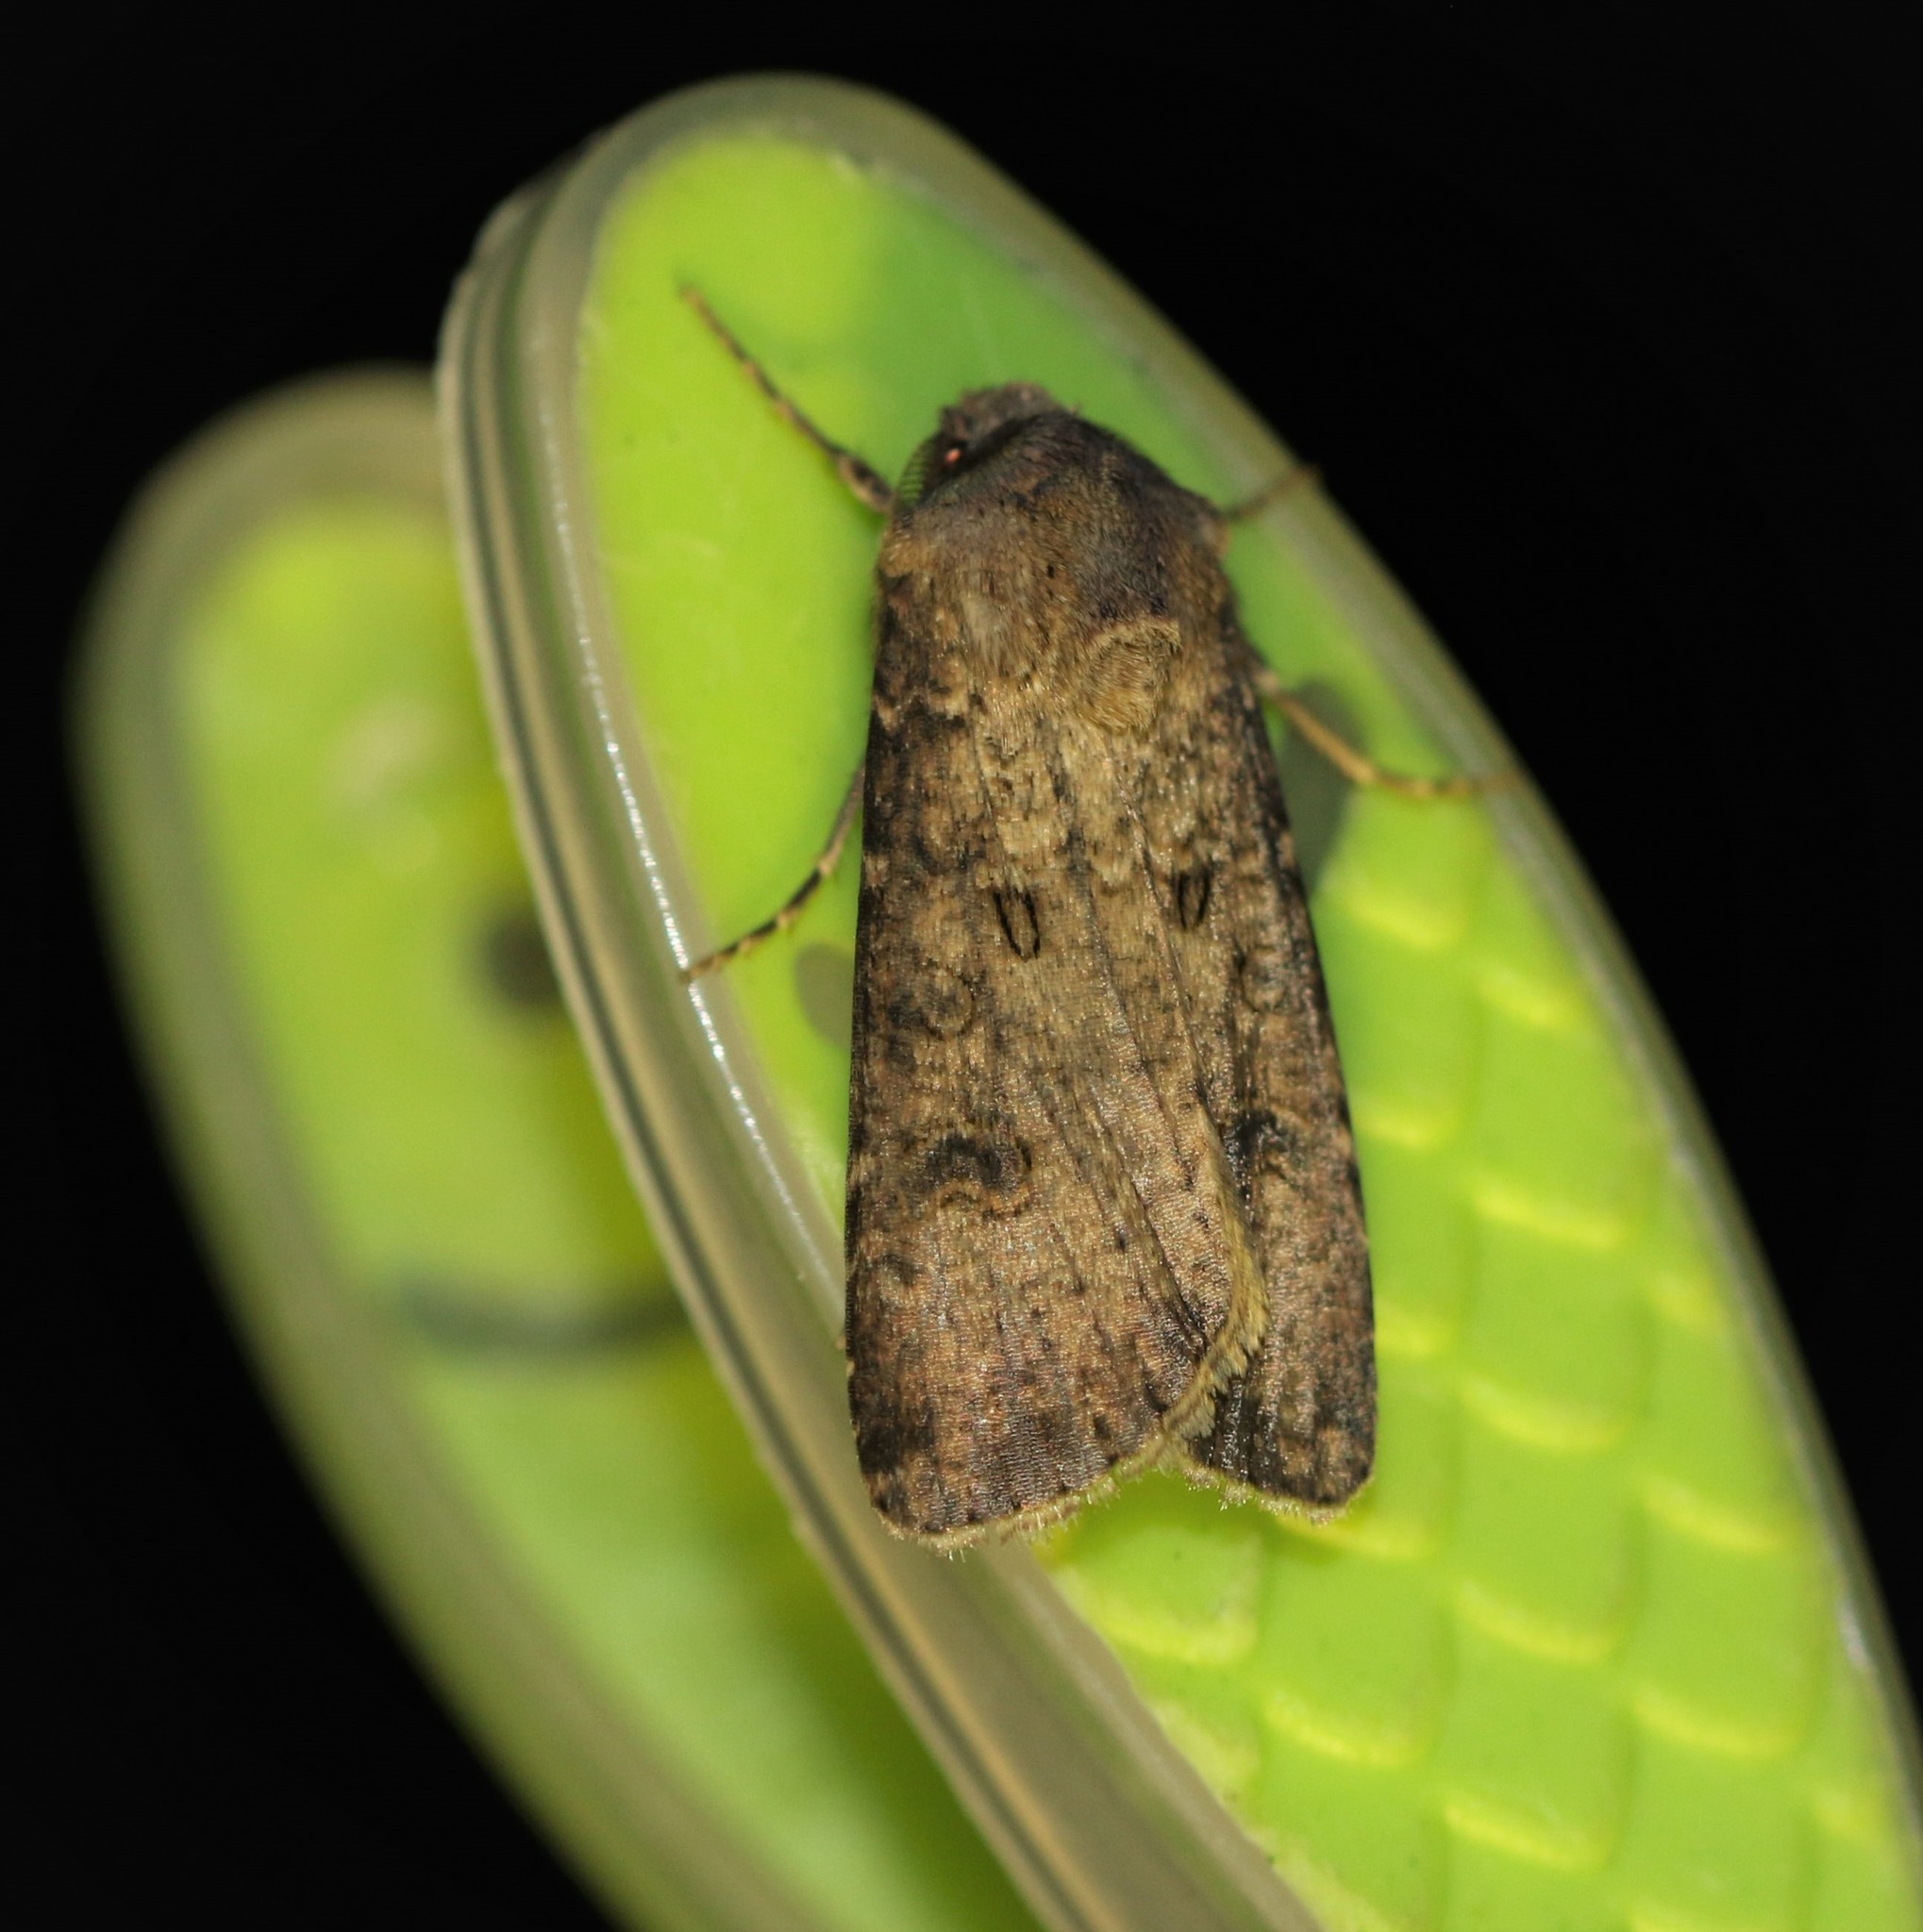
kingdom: Animalia
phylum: Arthropoda
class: Insecta
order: Lepidoptera
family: Noctuidae
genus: Agrotis
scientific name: Agrotis segetum
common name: Turnip moth
